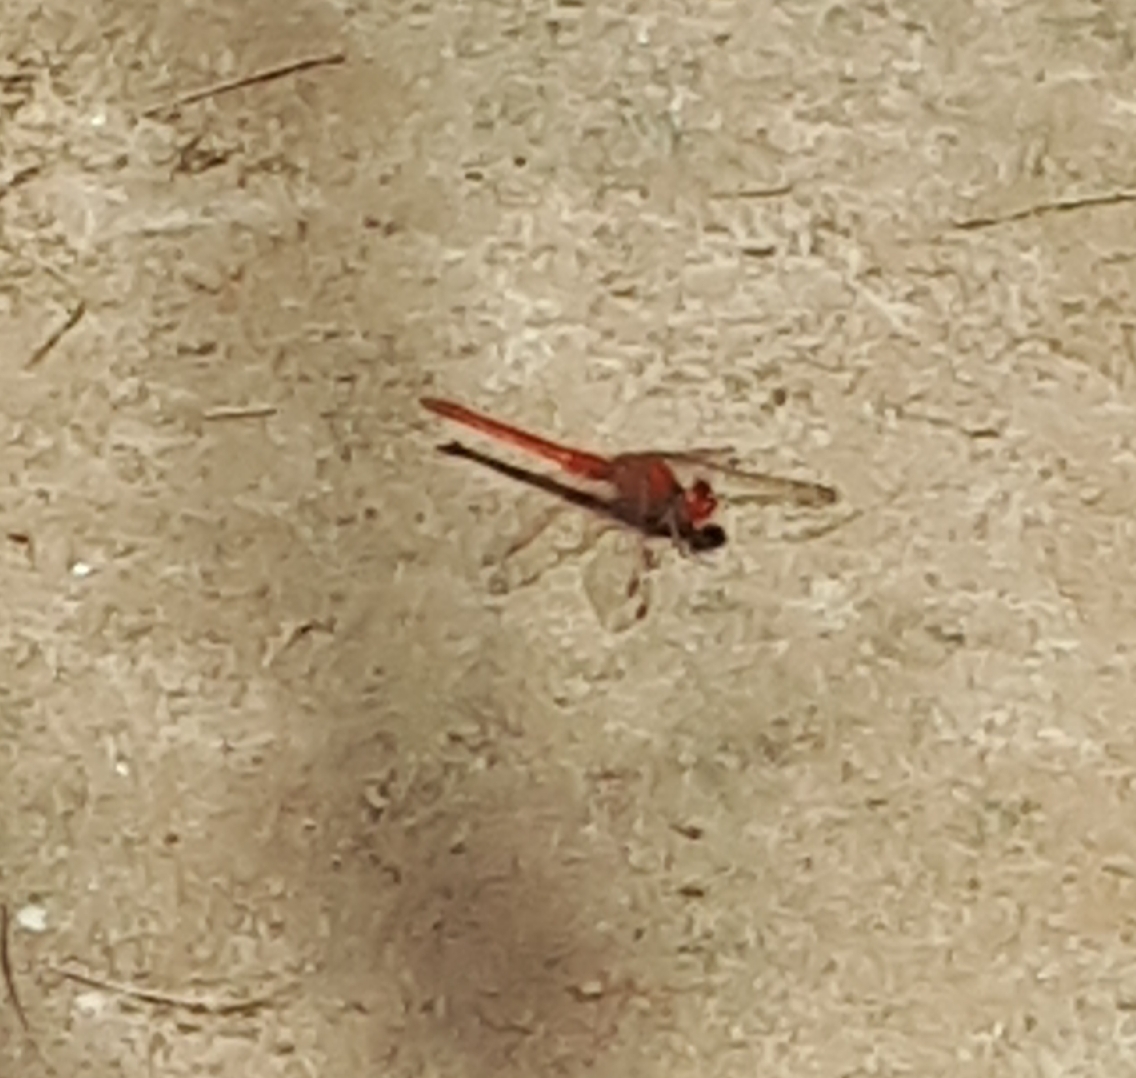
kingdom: Animalia
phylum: Arthropoda
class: Insecta
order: Odonata
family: Libellulidae
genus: Diplacodes
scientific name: Diplacodes haematodes
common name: Scarlet percher
